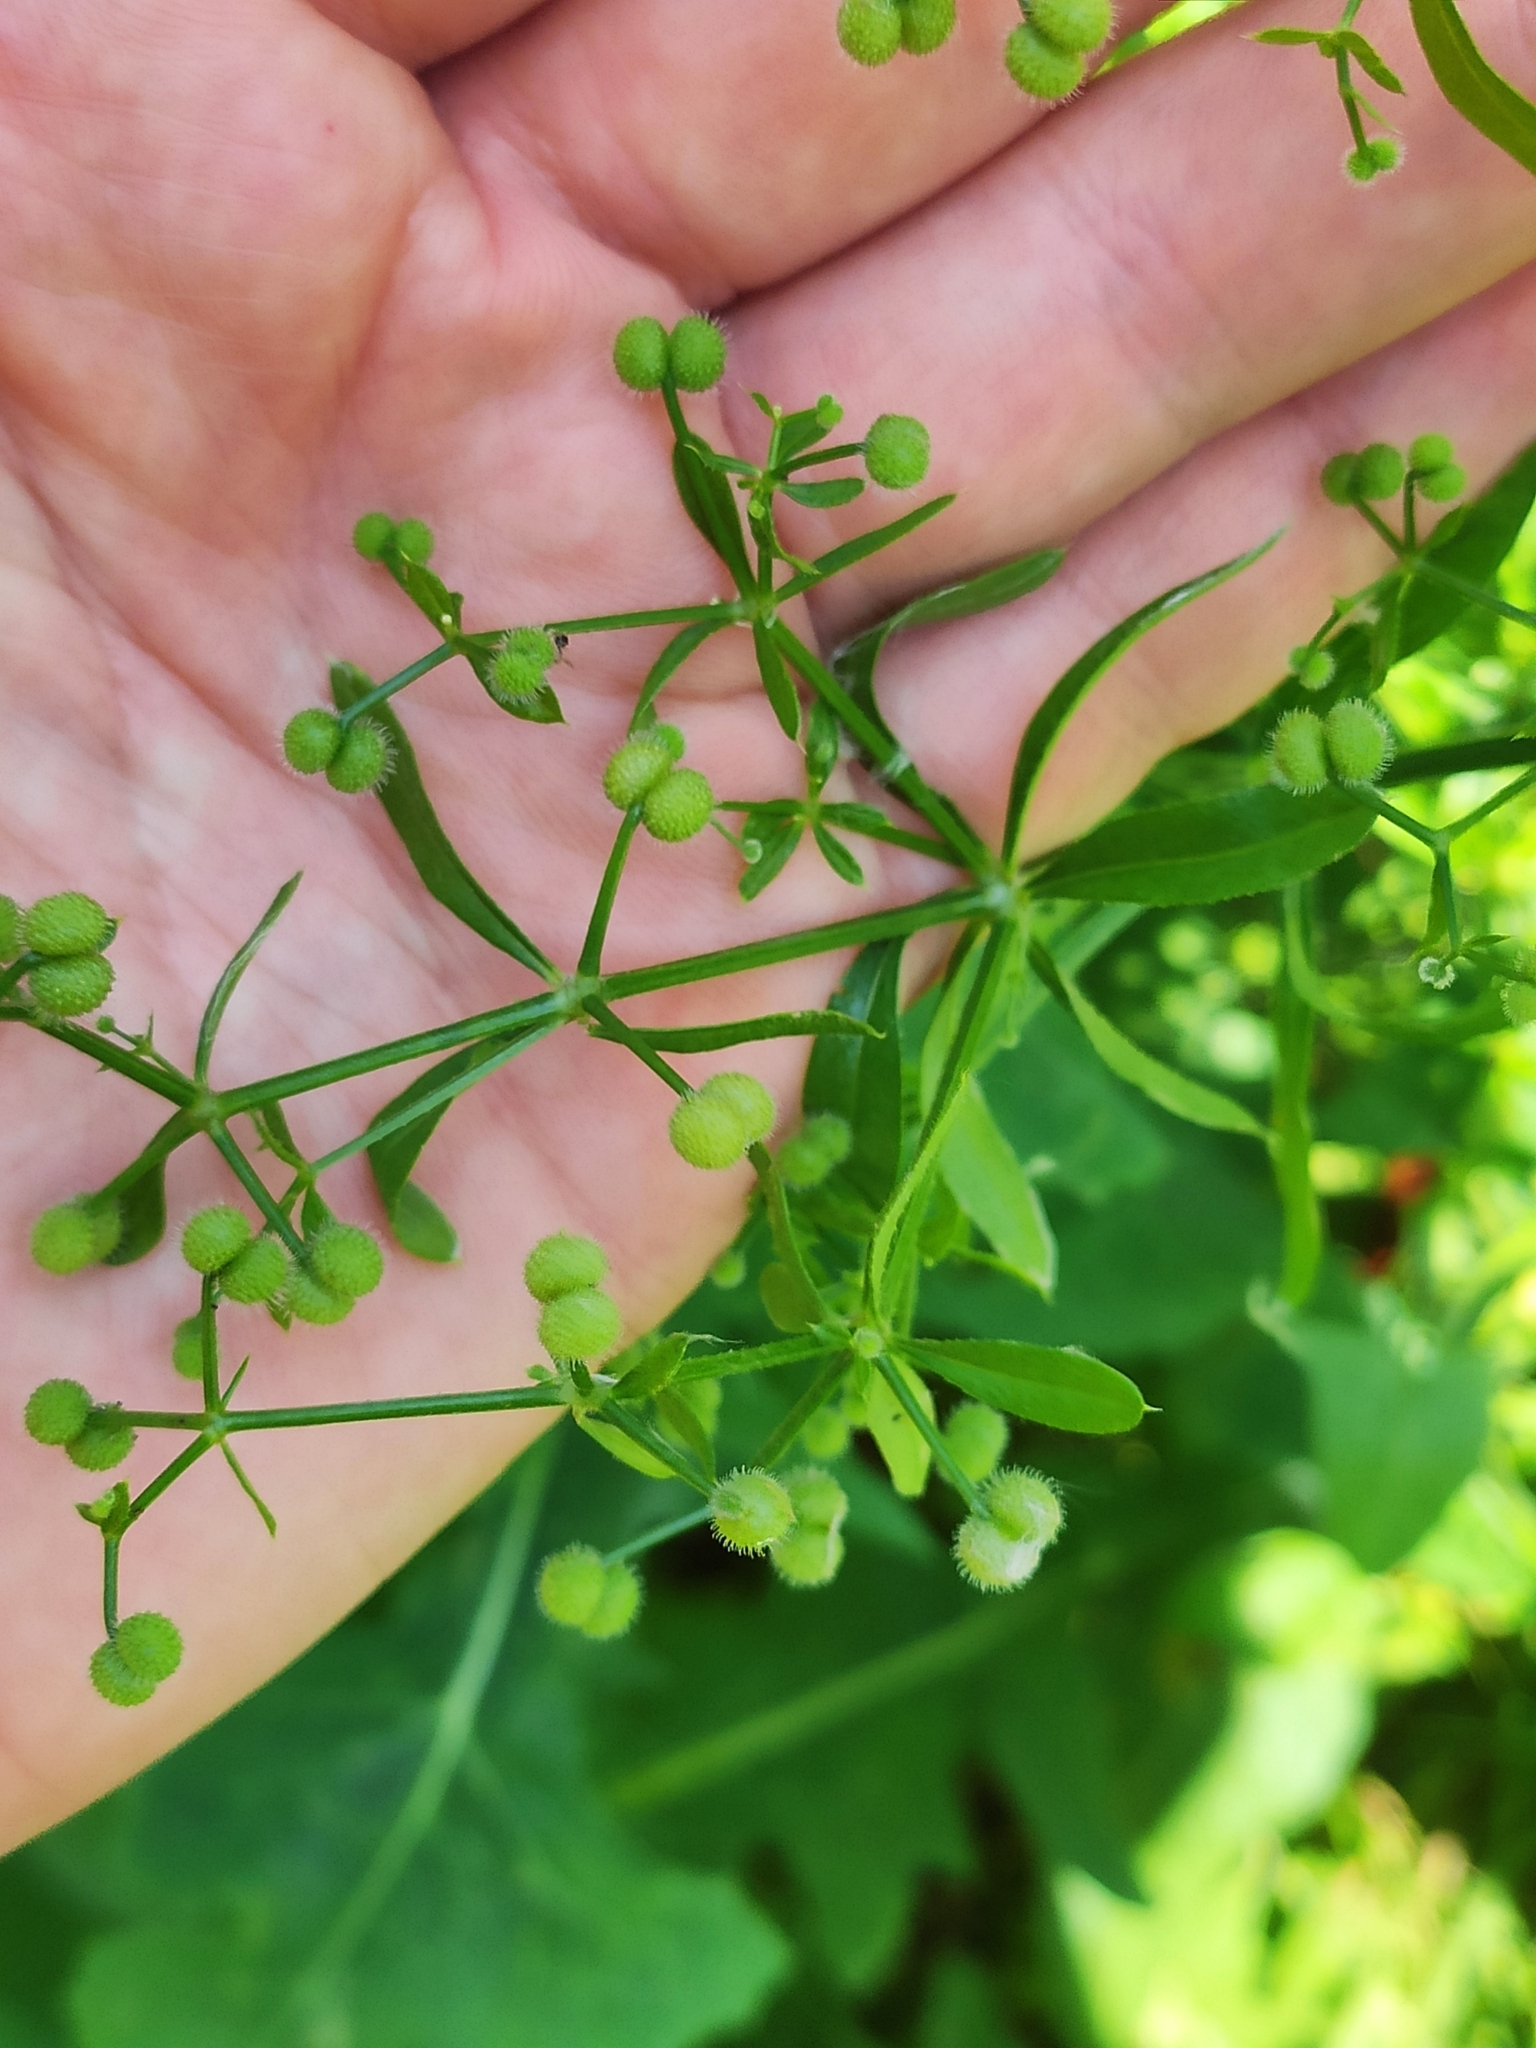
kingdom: Plantae
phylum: Tracheophyta
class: Magnoliopsida
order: Gentianales
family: Rubiaceae
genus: Galium
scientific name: Galium aparine
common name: Cleavers
